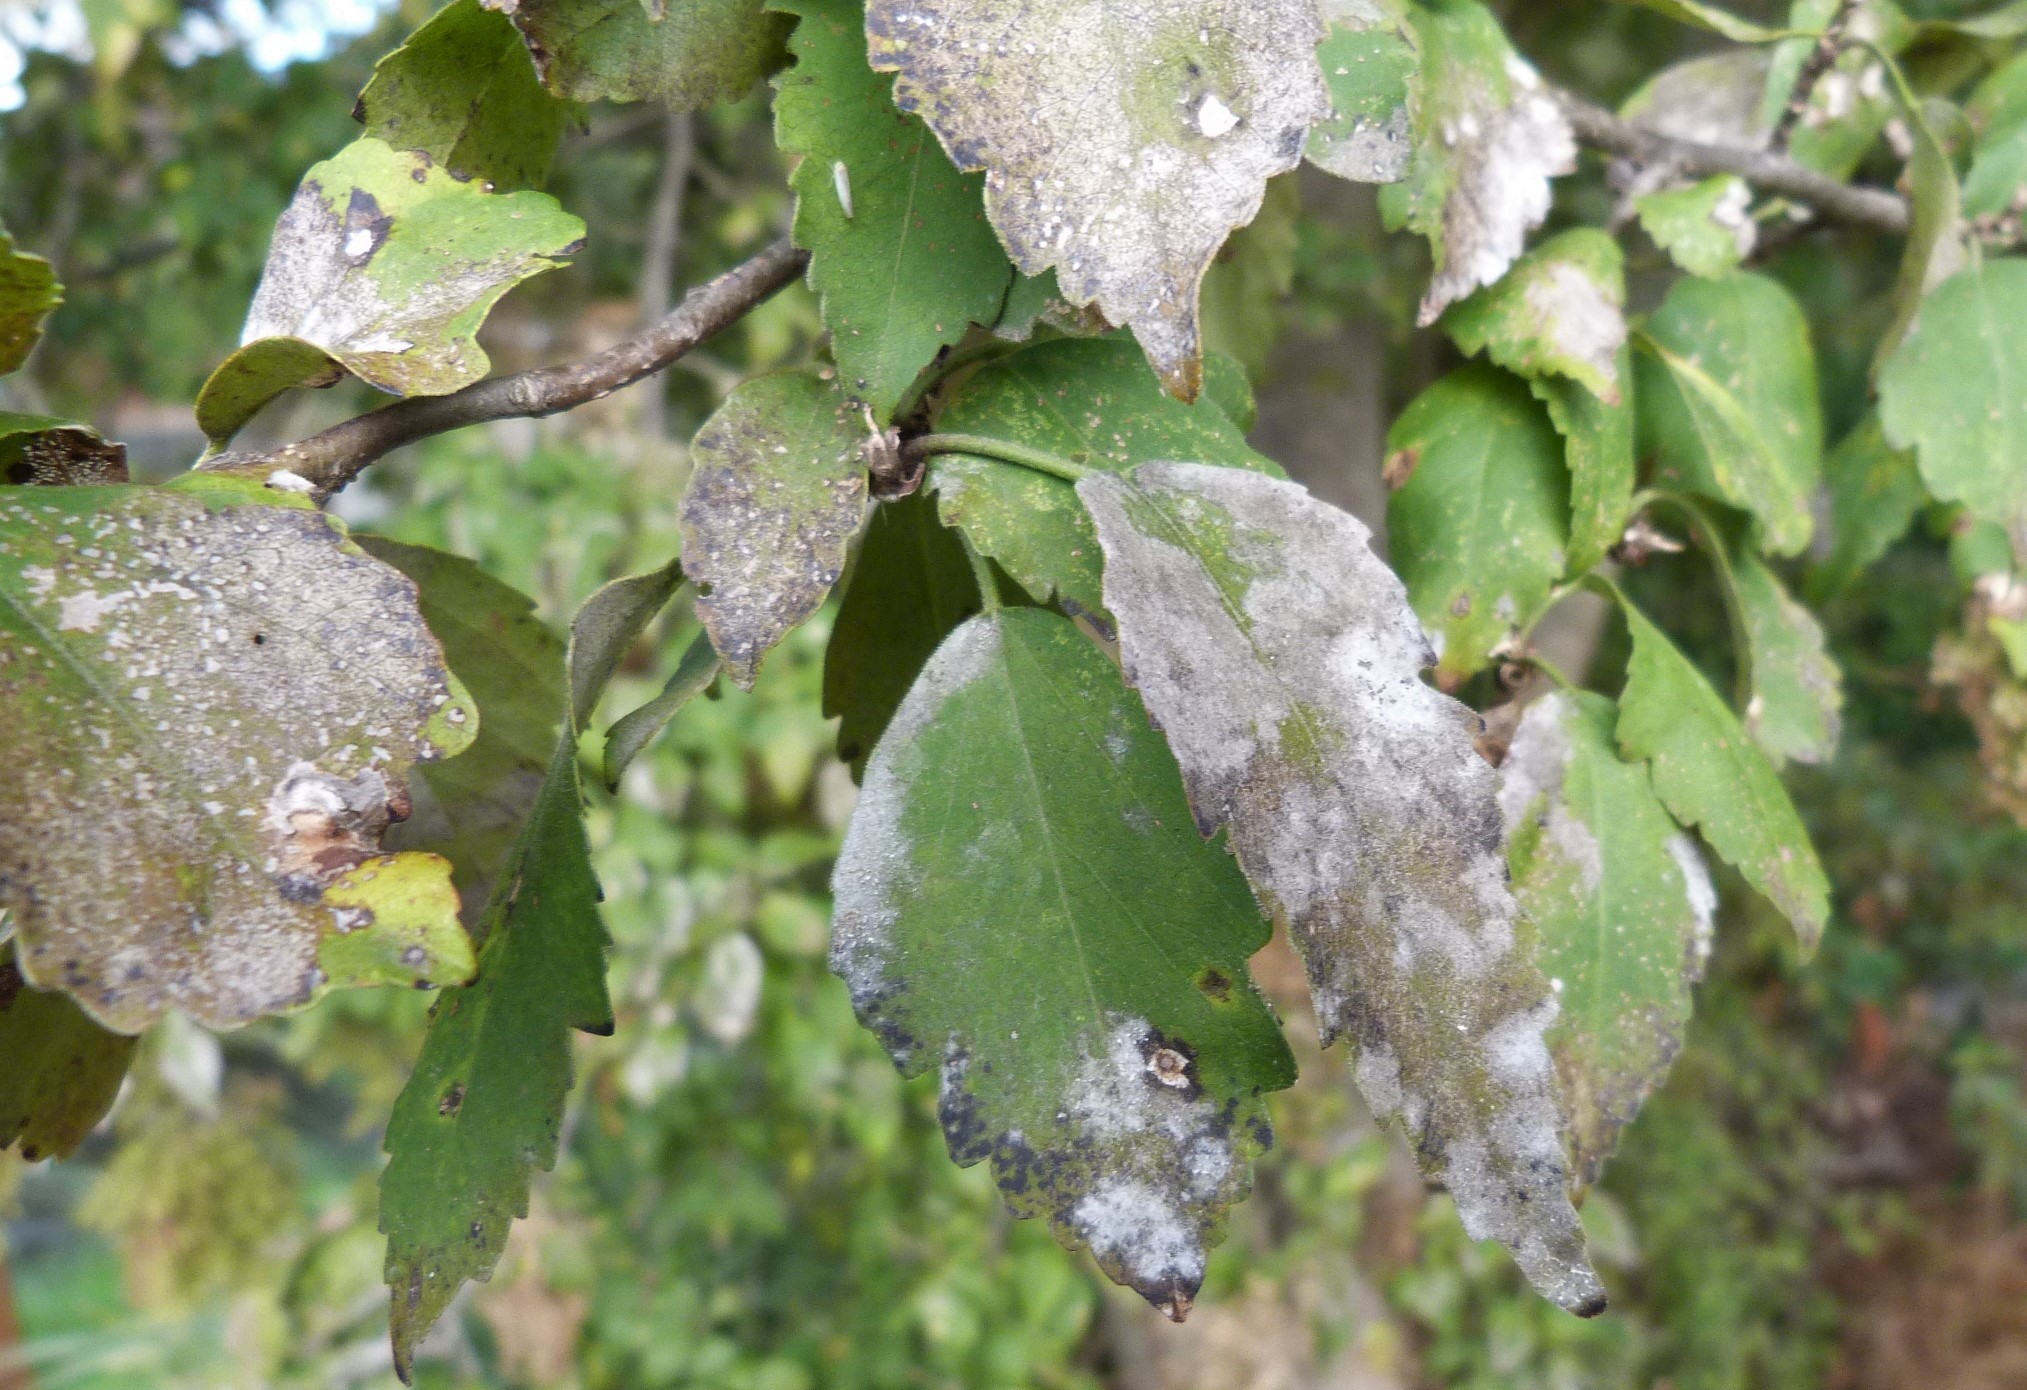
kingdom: Fungi
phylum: Ascomycota
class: Leotiomycetes
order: Helotiales
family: Erysiphaceae
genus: Podosphaera
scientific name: Podosphaera fusca
